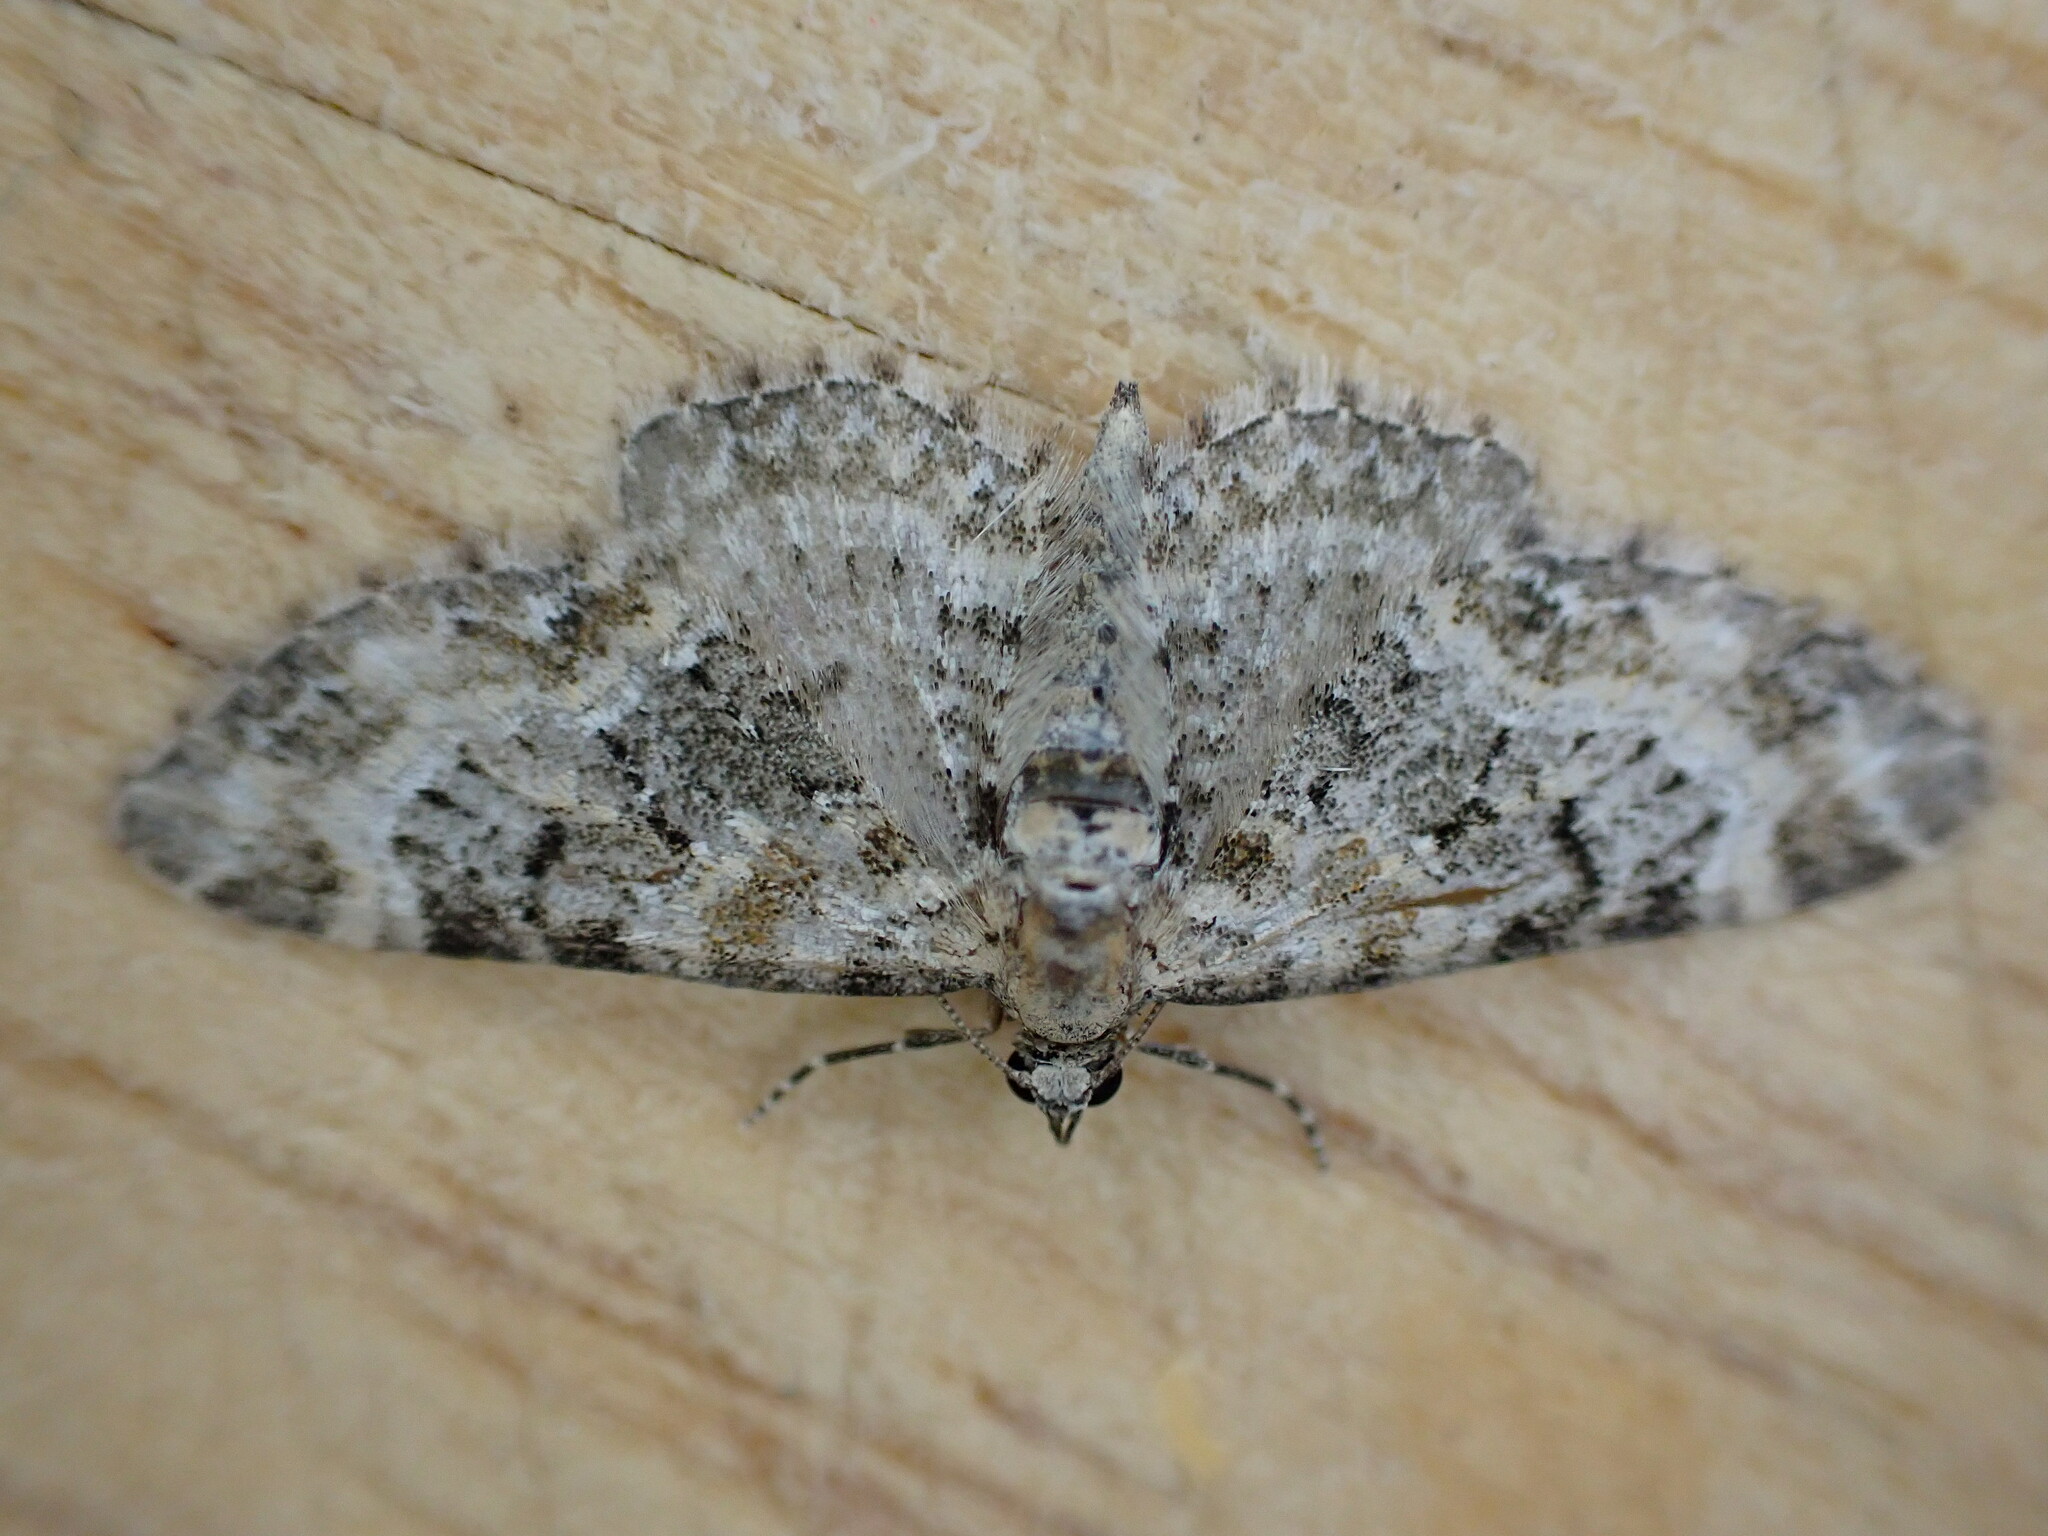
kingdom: Animalia
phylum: Arthropoda
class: Insecta
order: Lepidoptera
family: Geometridae
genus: Eupithecia
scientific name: Eupithecia pulchellata
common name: Foxglove pug
